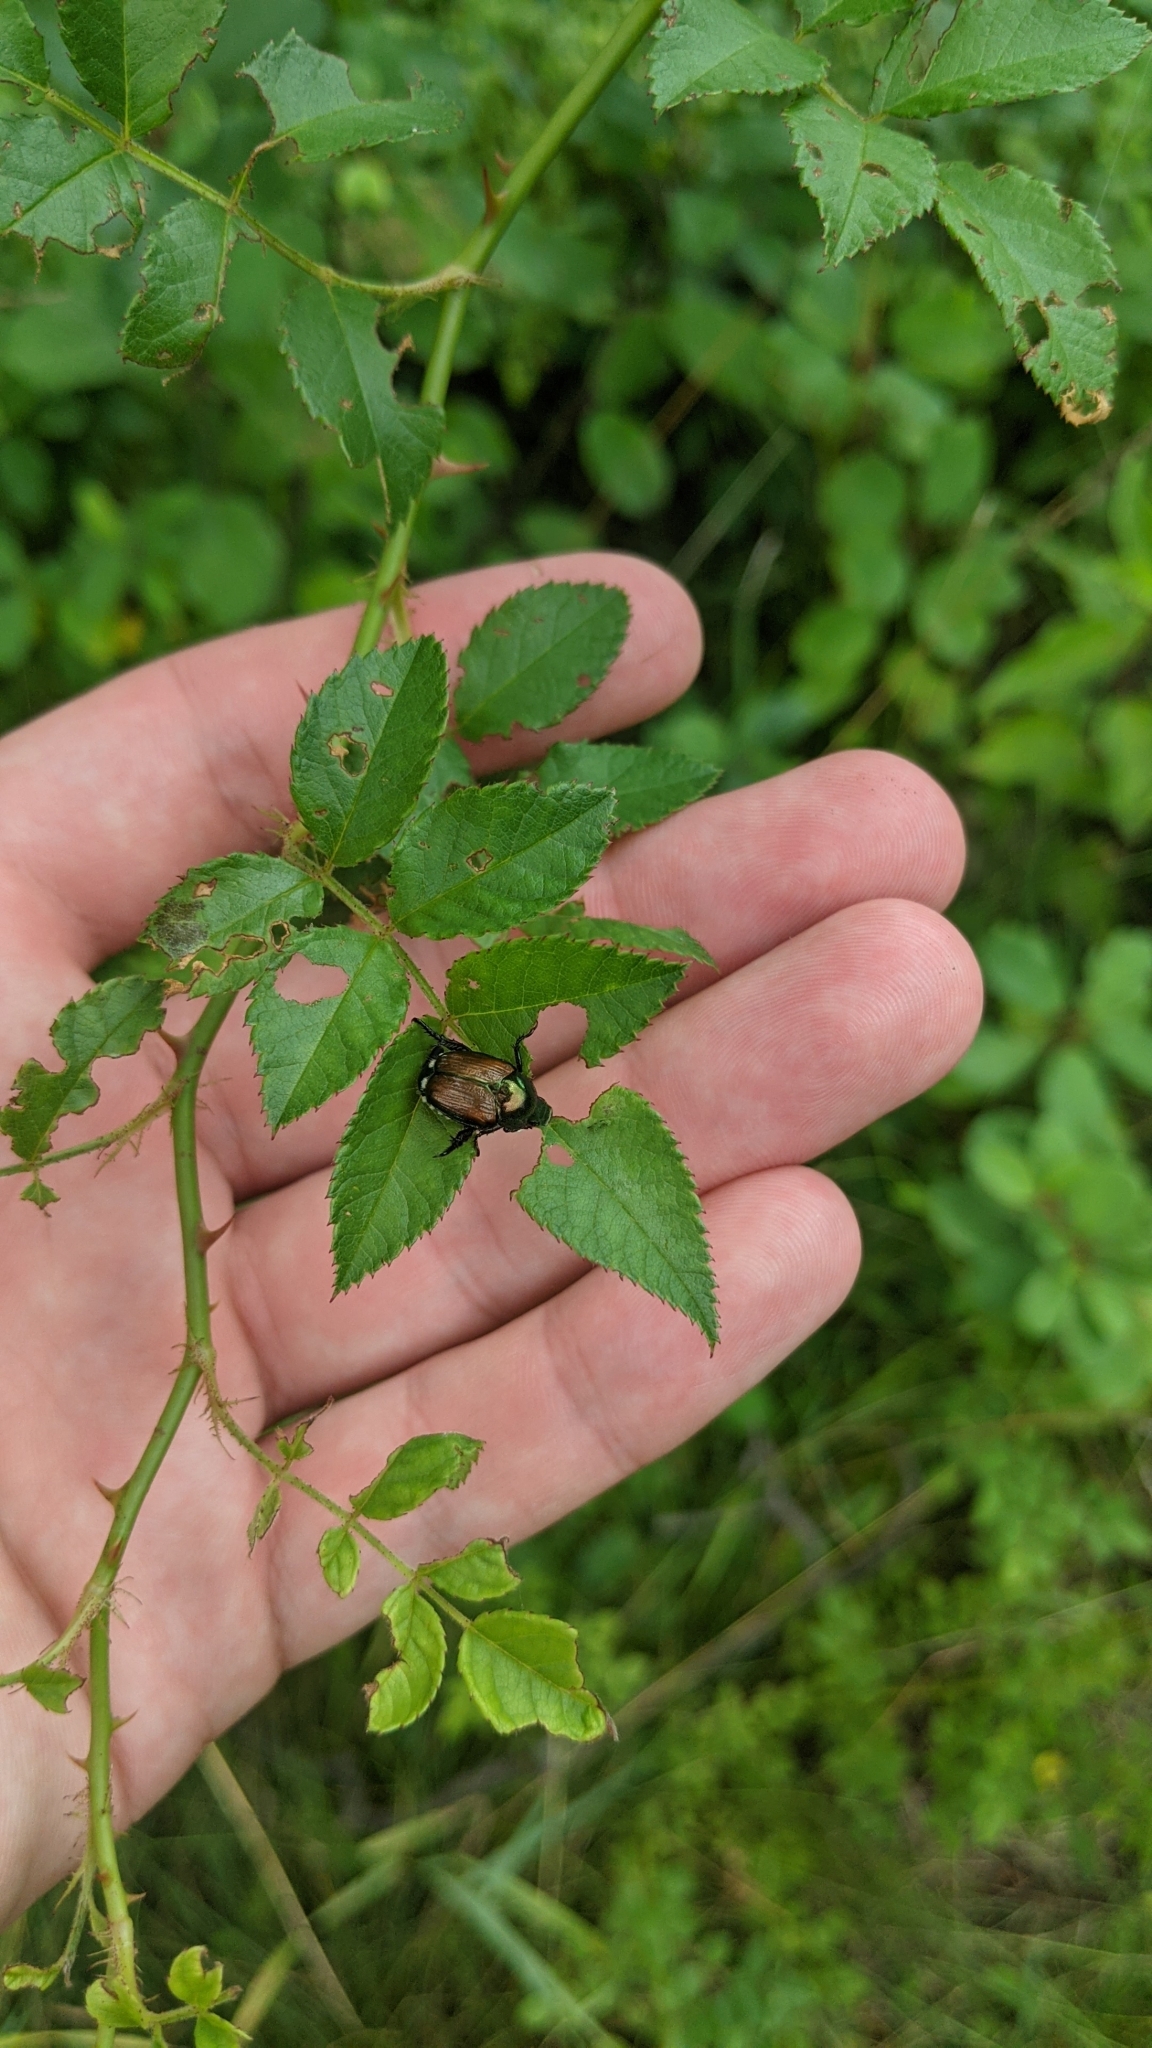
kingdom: Animalia
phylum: Arthropoda
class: Insecta
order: Coleoptera
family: Scarabaeidae
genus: Popillia
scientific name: Popillia japonica
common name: Japanese beetle
